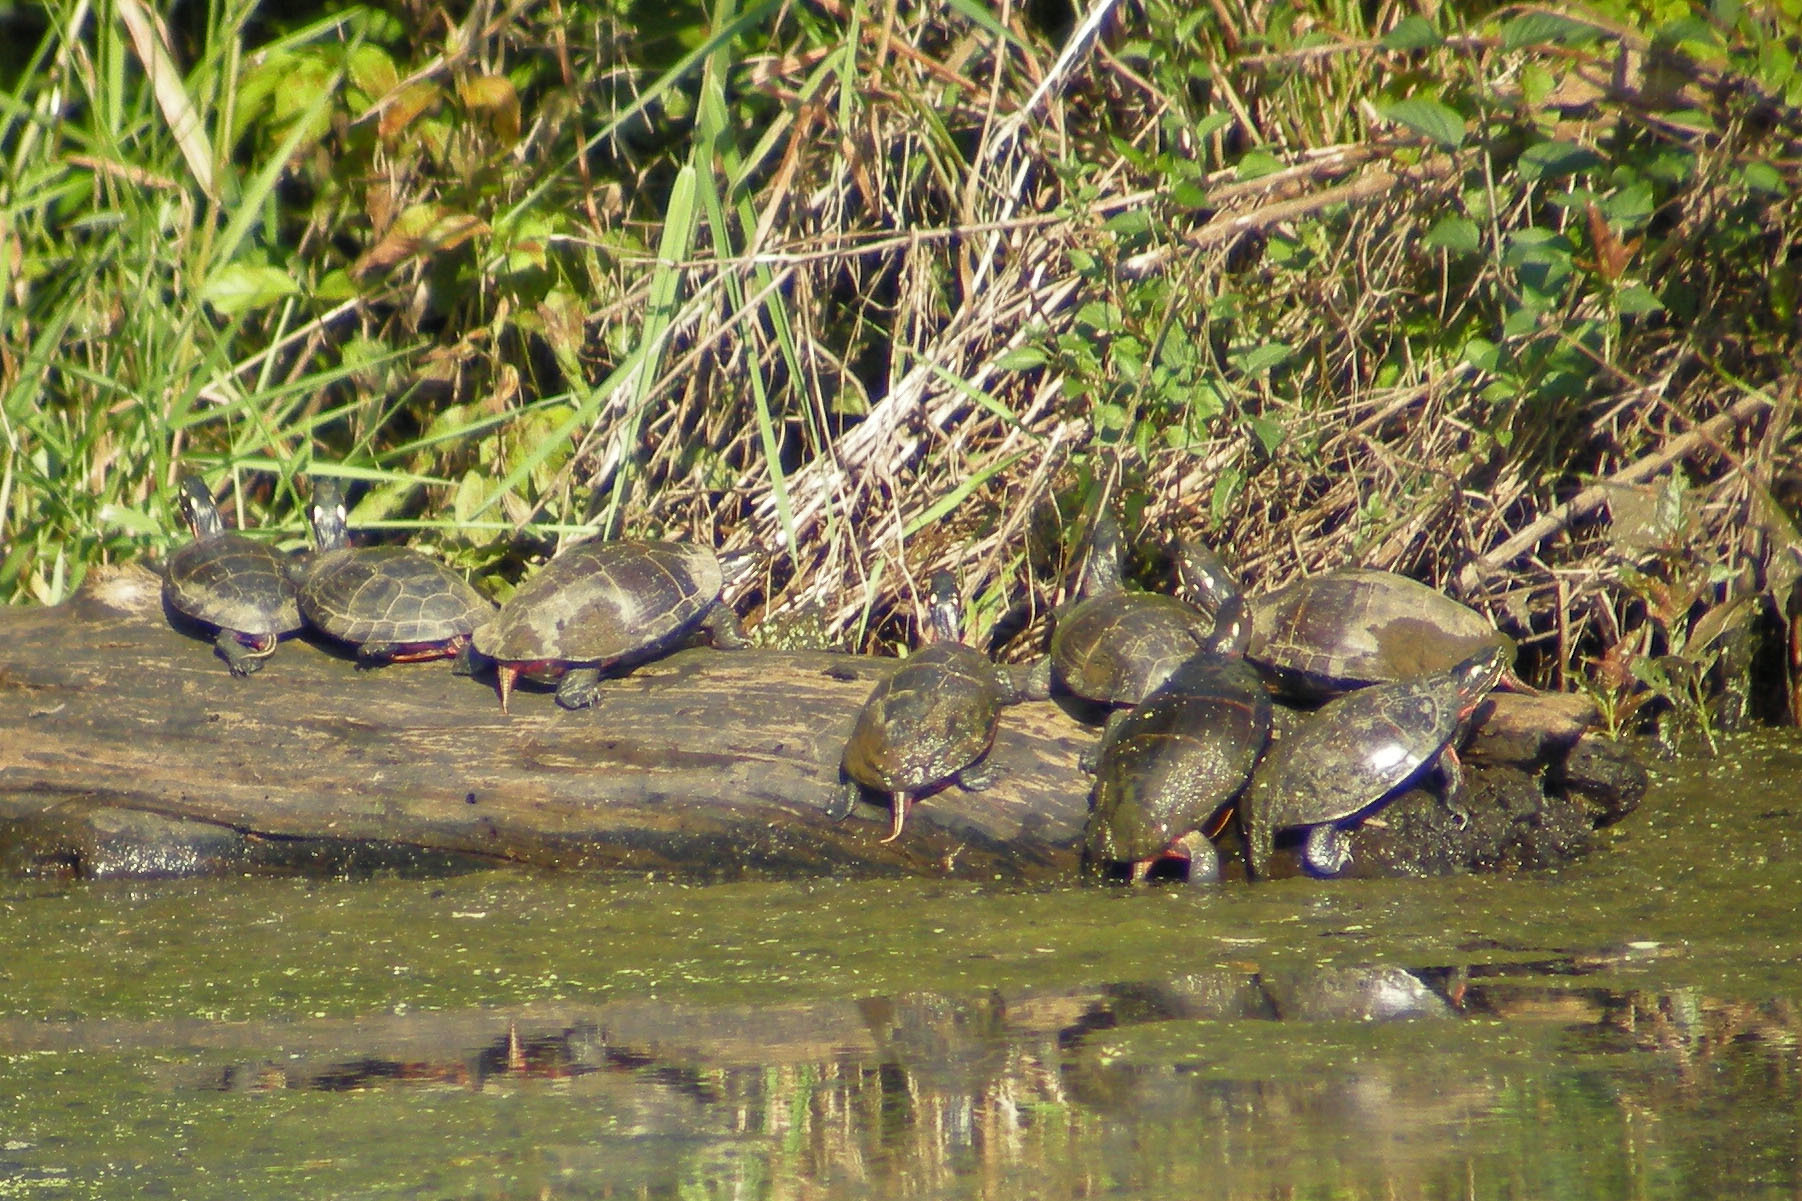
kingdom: Animalia
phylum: Chordata
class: Testudines
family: Emydidae
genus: Chrysemys
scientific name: Chrysemys picta
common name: Painted turtle
